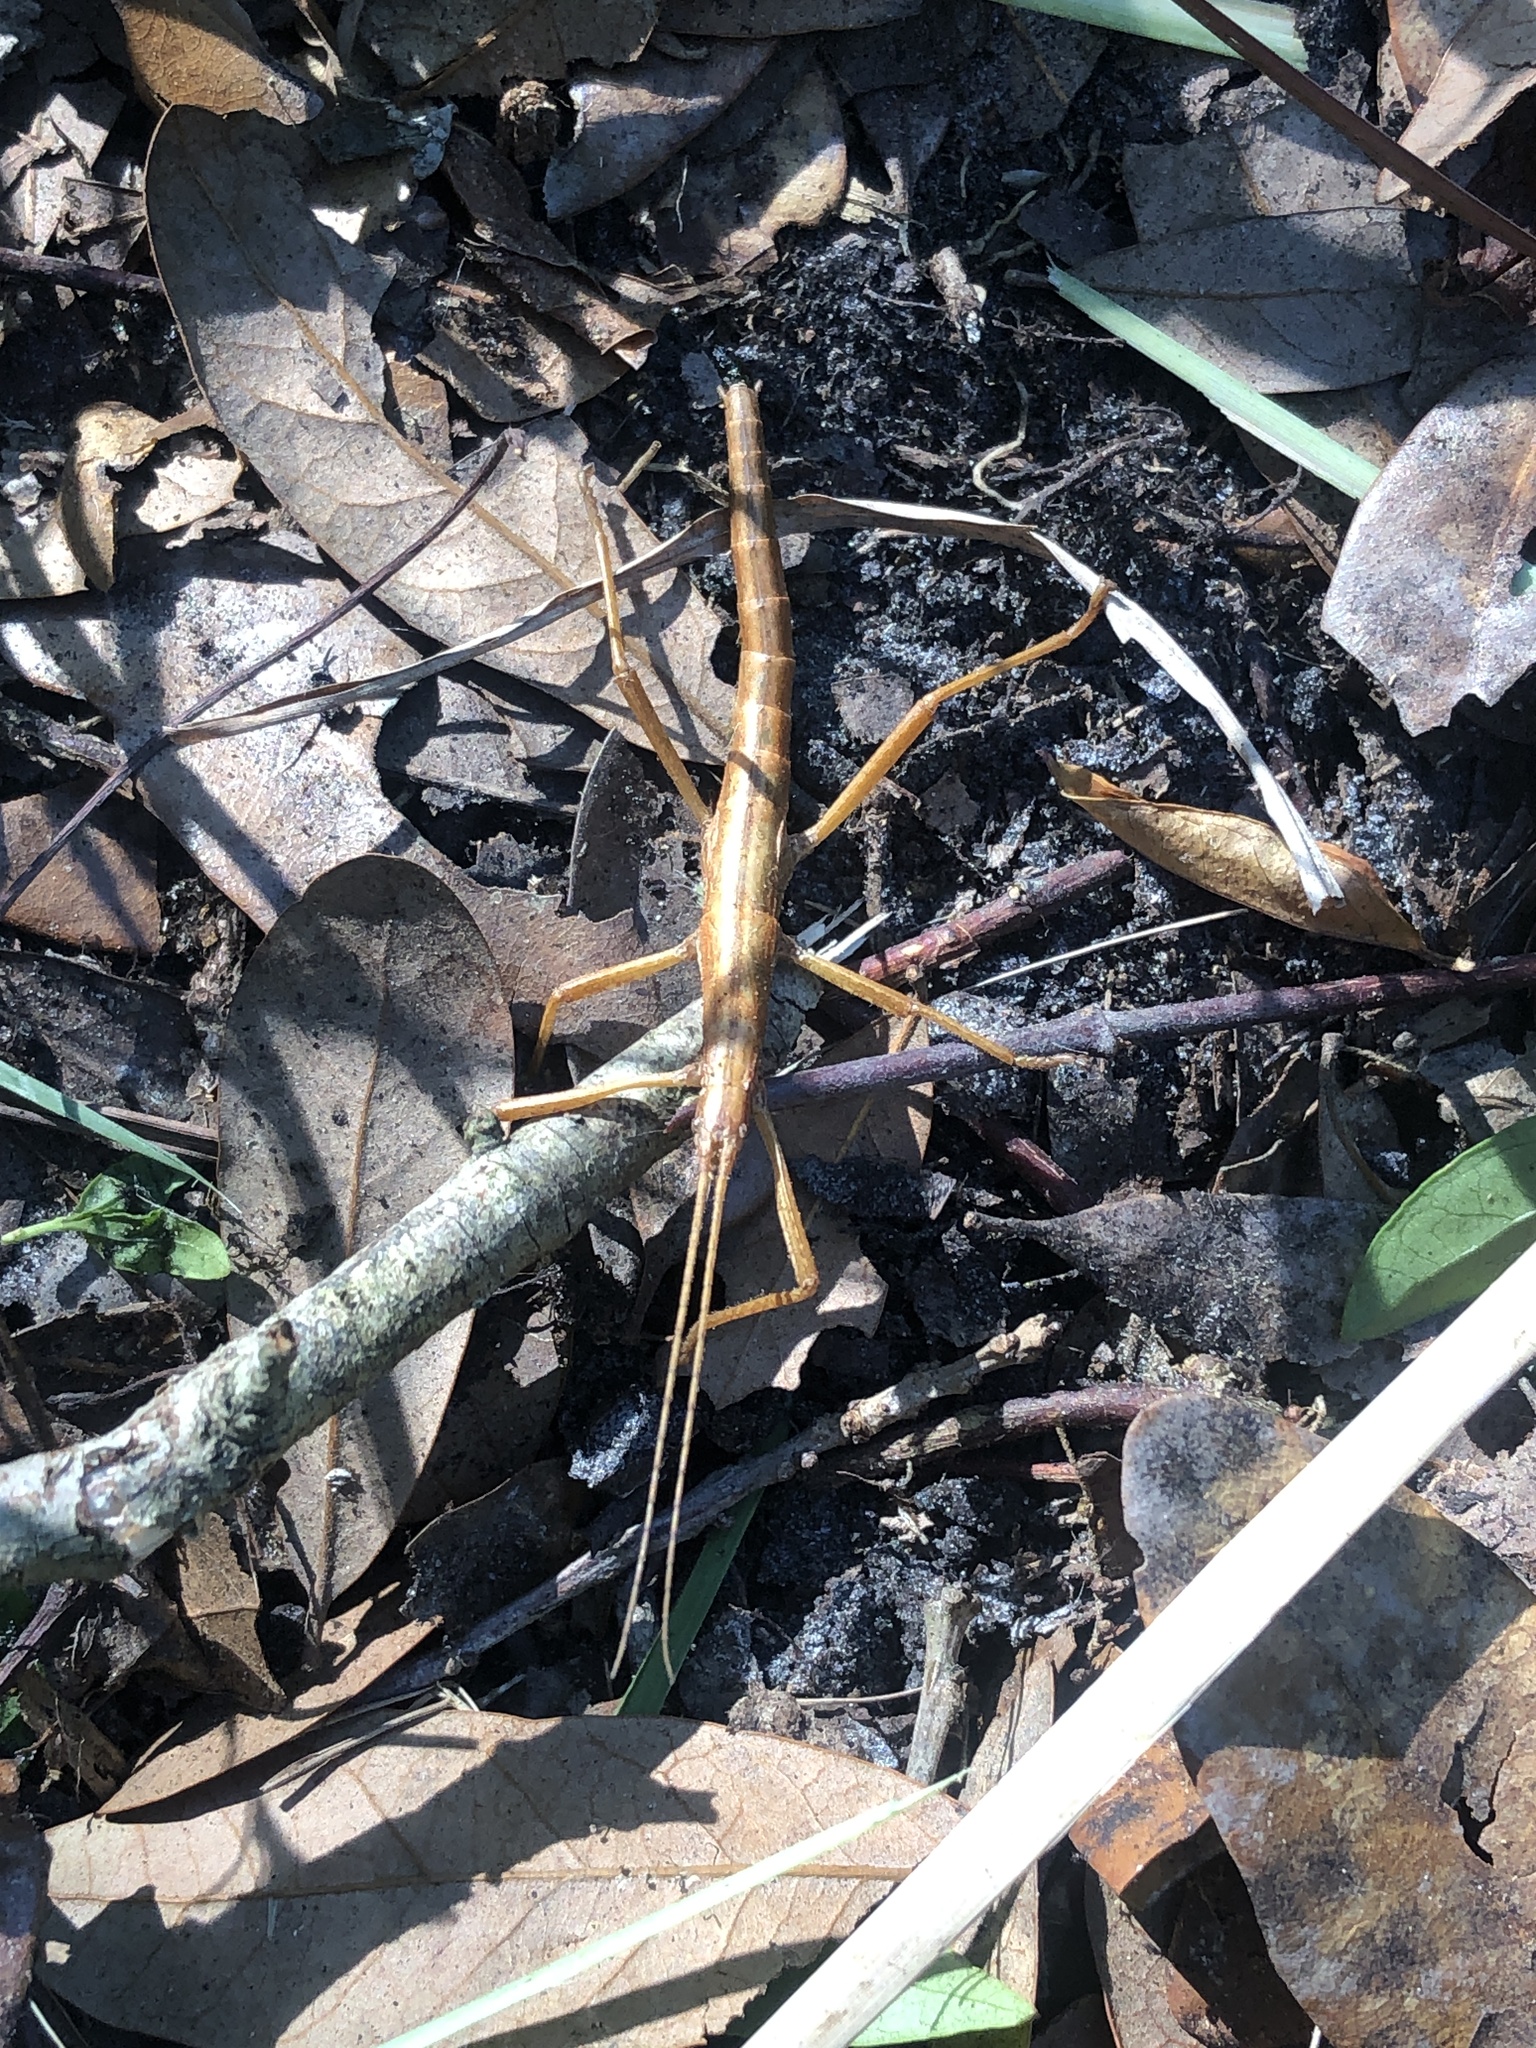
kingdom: Animalia
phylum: Arthropoda
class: Insecta
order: Phasmida
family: Pseudophasmatidae
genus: Anisomorpha
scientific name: Anisomorpha buprestoides
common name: Florida stick insect
